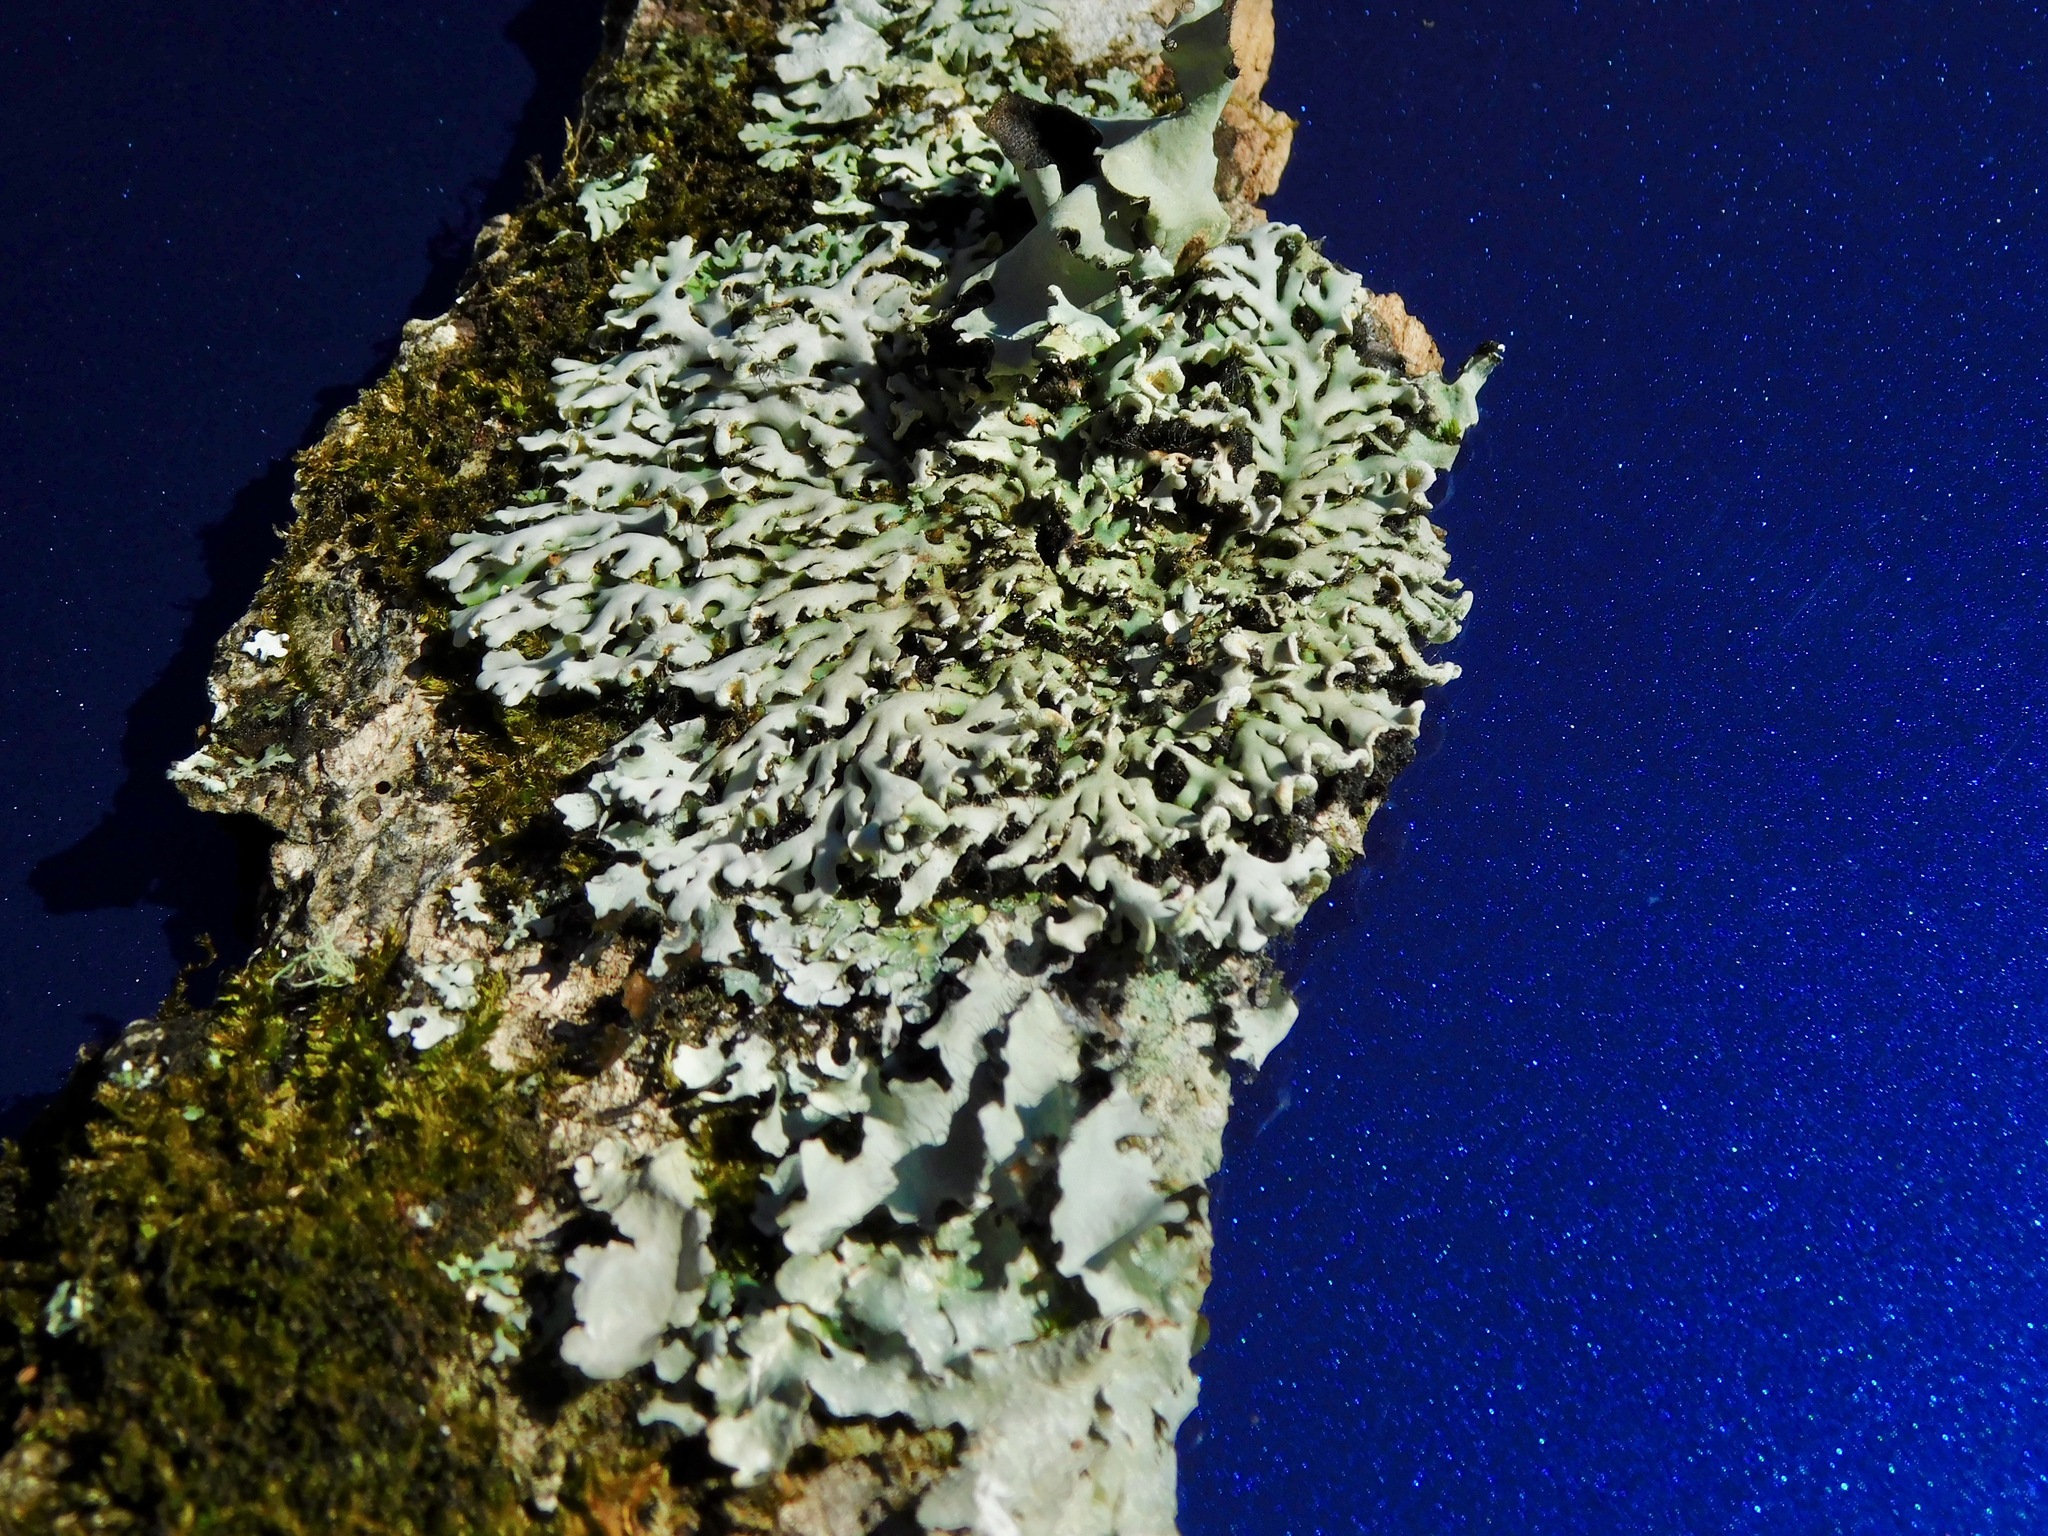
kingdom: Fungi
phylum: Ascomycota
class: Lecanoromycetes
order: Caliciales
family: Physciaceae
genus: Polyblastidium
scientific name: Polyblastidium casarettianum
